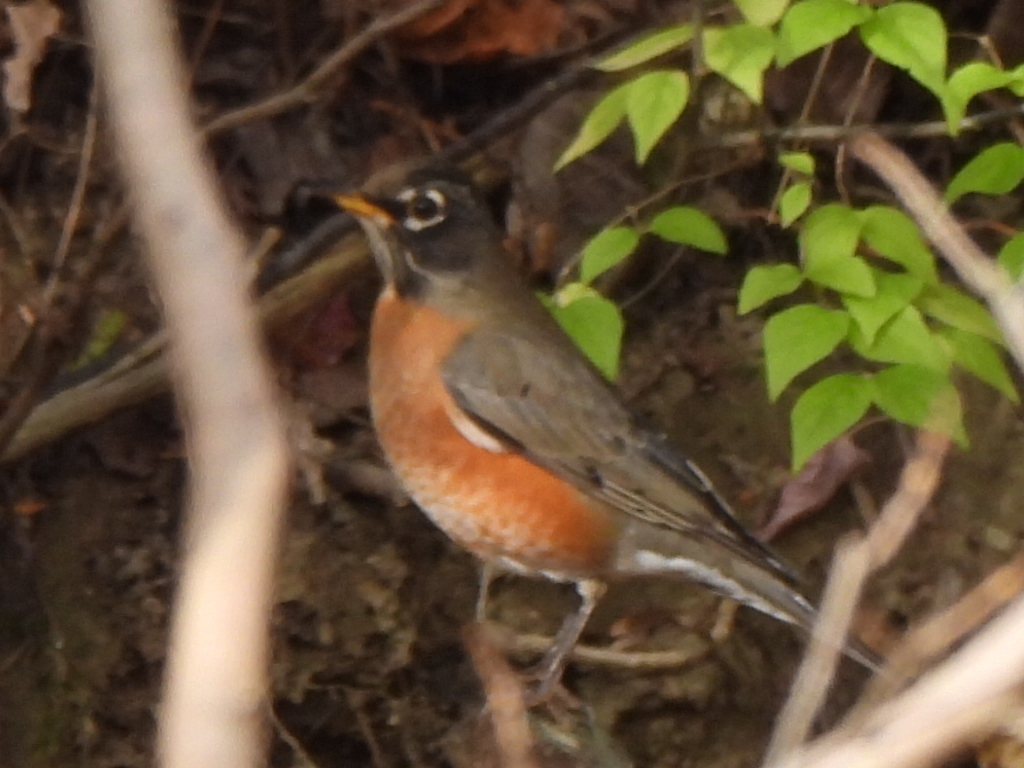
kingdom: Animalia
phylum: Chordata
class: Aves
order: Passeriformes
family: Turdidae
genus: Turdus
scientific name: Turdus migratorius
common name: American robin
